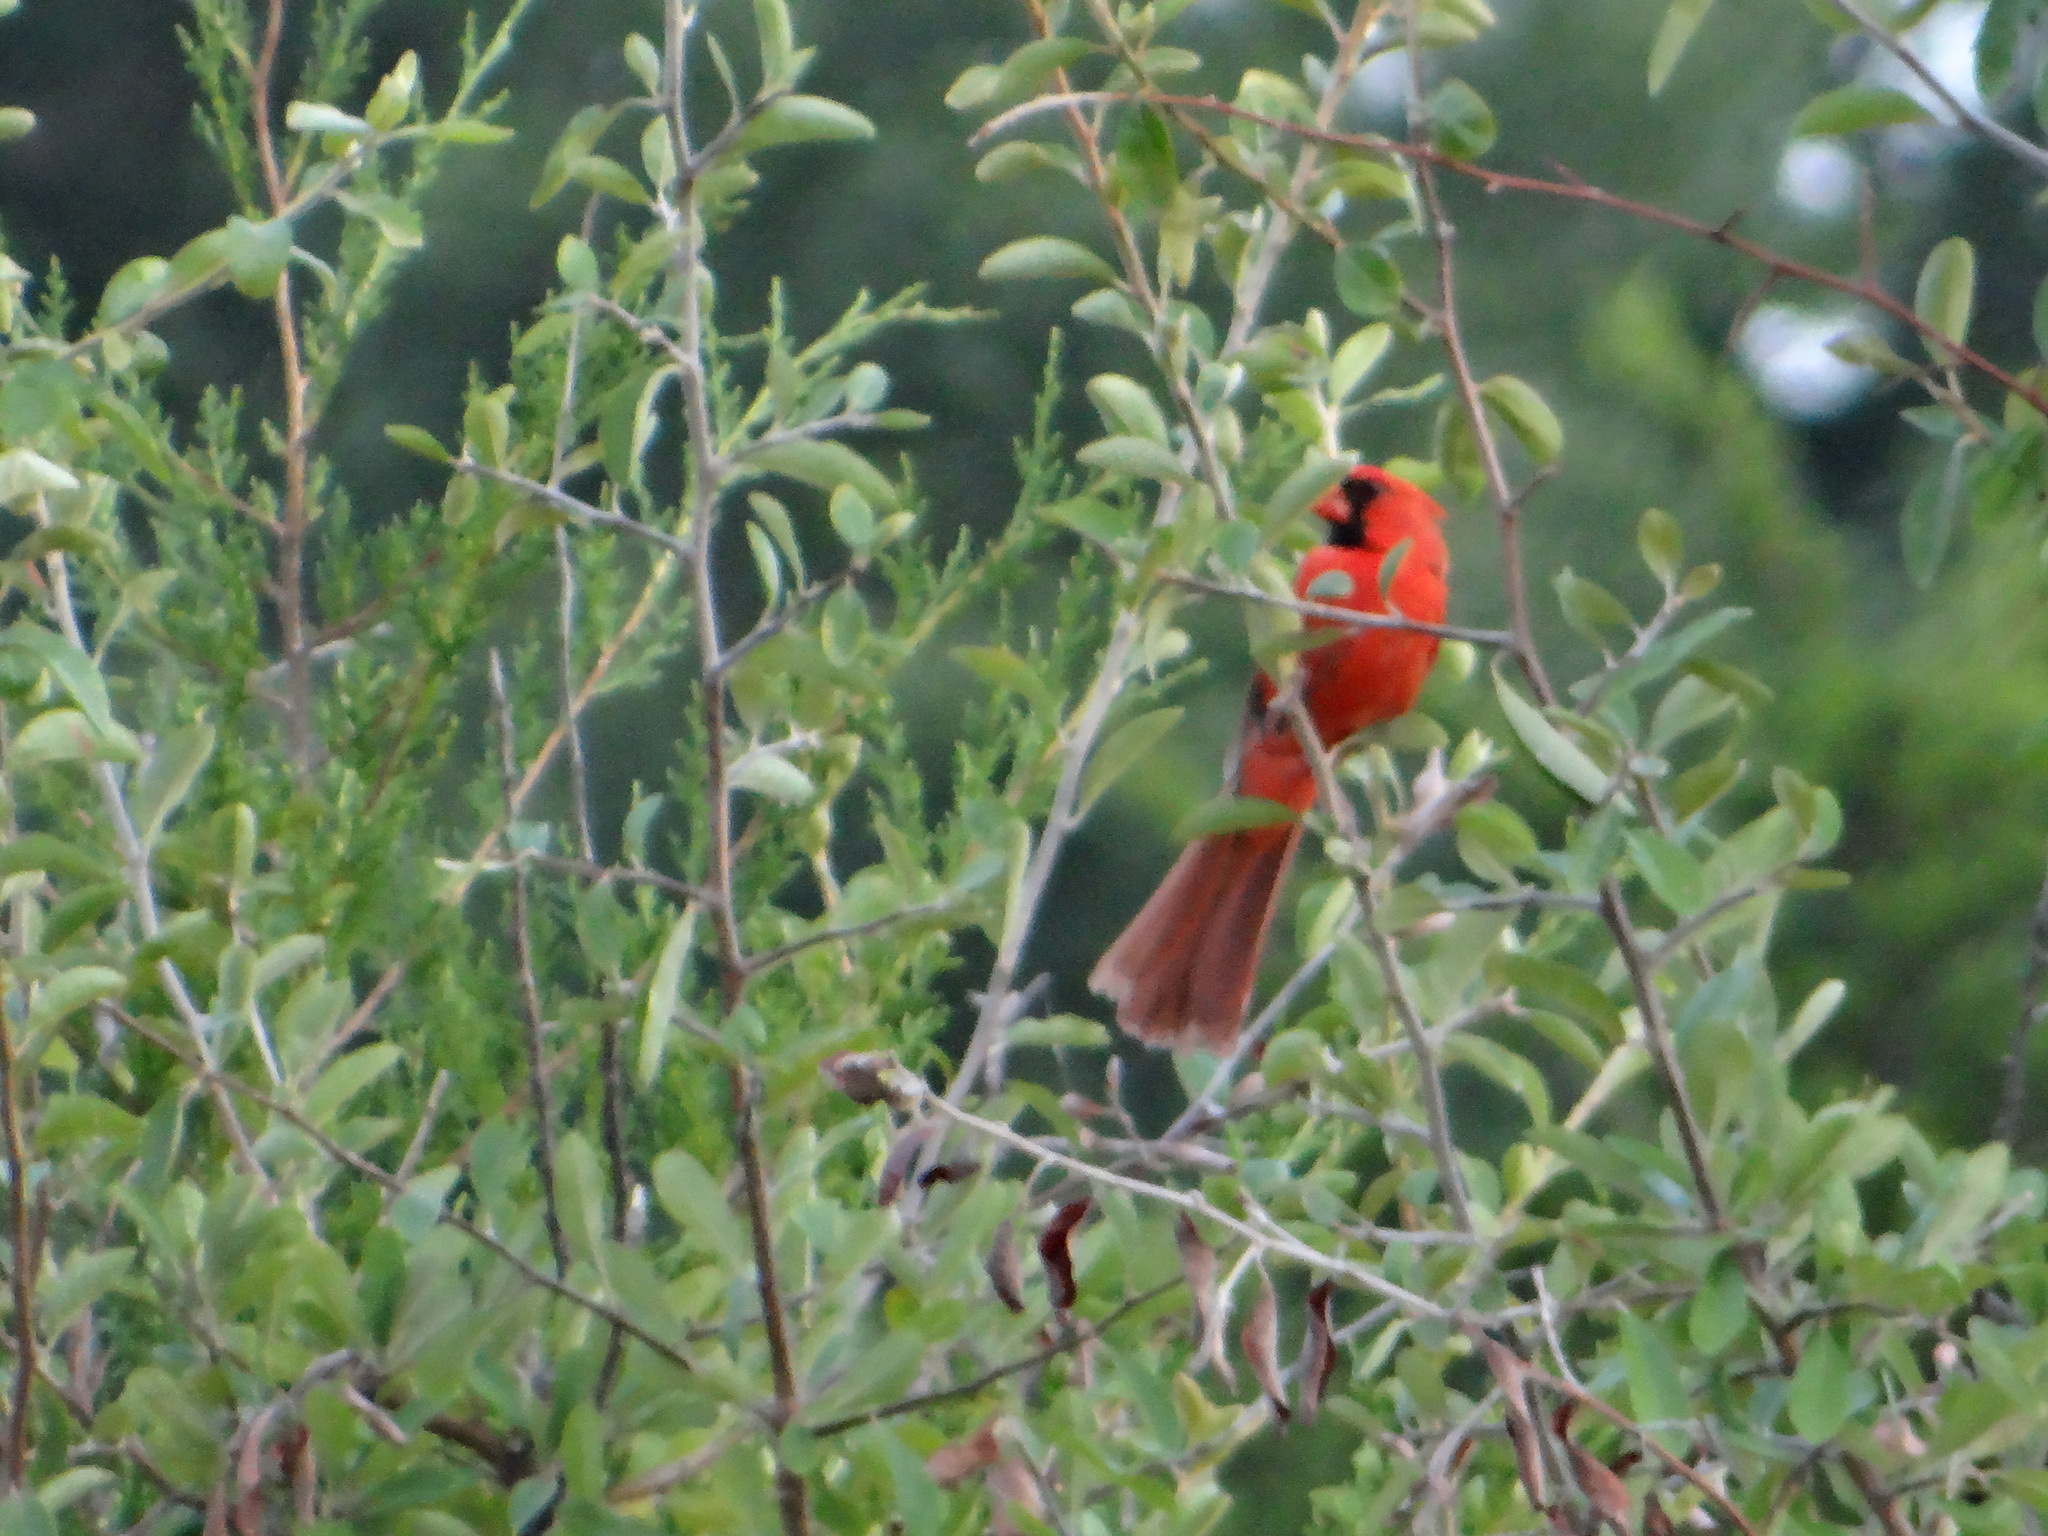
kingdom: Animalia
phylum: Chordata
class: Aves
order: Passeriformes
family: Cardinalidae
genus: Cardinalis
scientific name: Cardinalis cardinalis
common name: Northern cardinal
